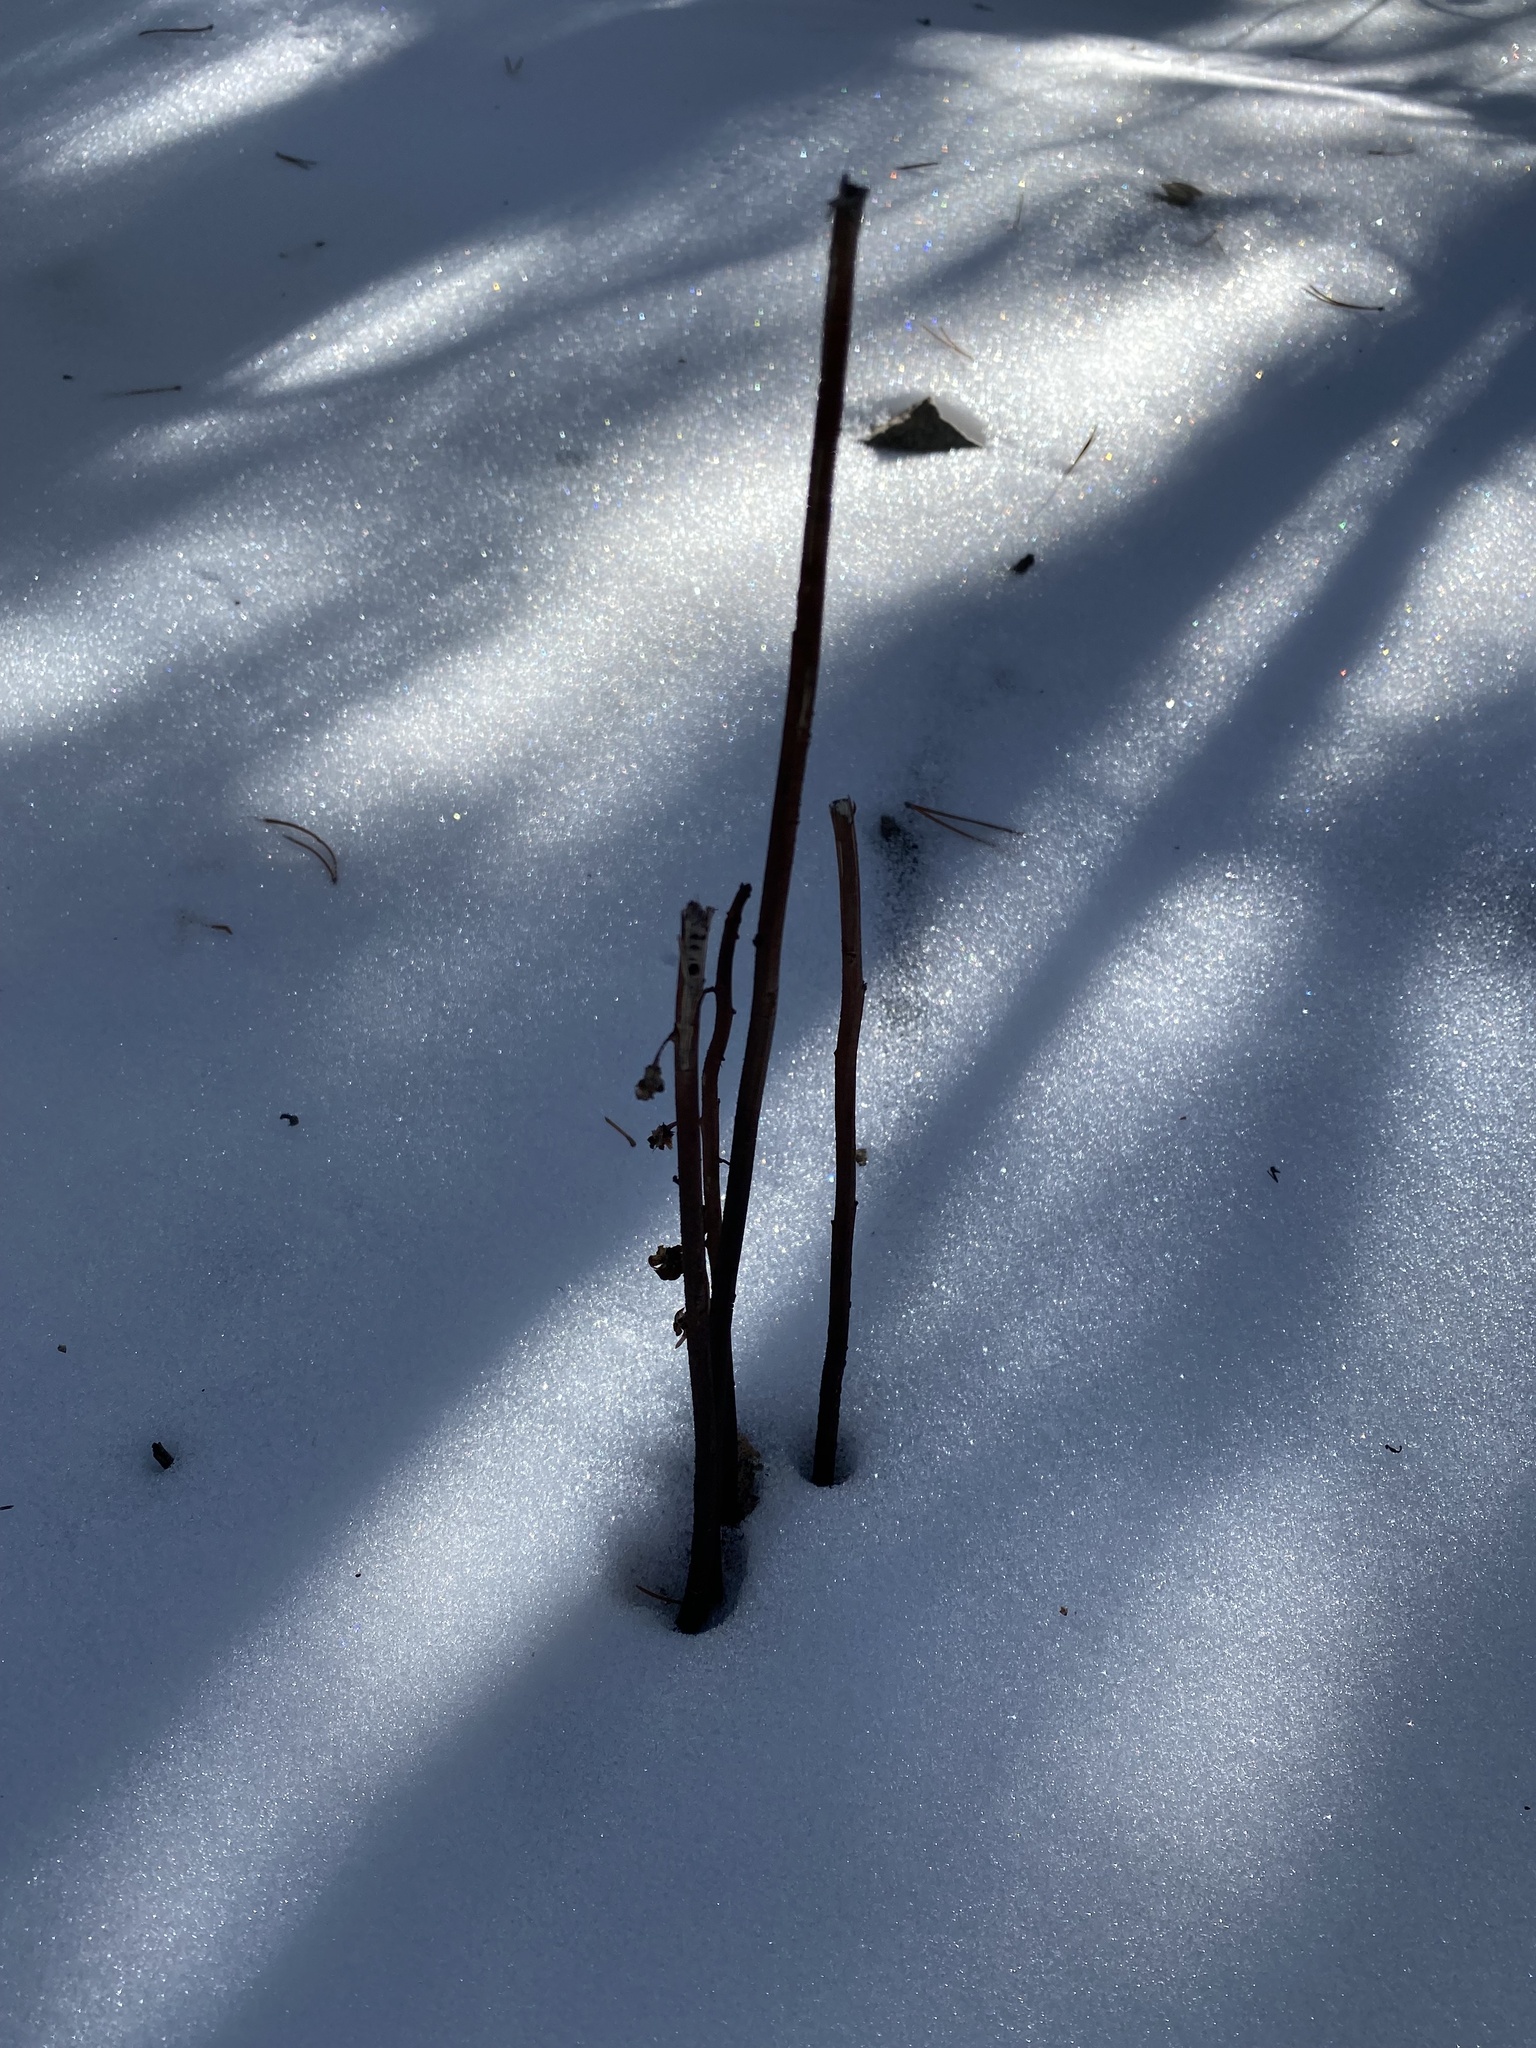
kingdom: Plantae
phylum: Tracheophyta
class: Magnoliopsida
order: Ericales
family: Ericaceae
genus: Pterospora
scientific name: Pterospora andromedea
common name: Giant bird's-nest
